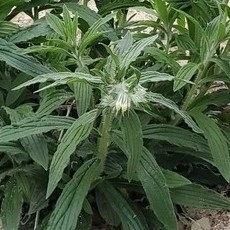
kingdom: Plantae
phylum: Tracheophyta
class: Magnoliopsida
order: Boraginales
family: Boraginaceae
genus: Lithospermum
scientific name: Lithospermum caroliniense
